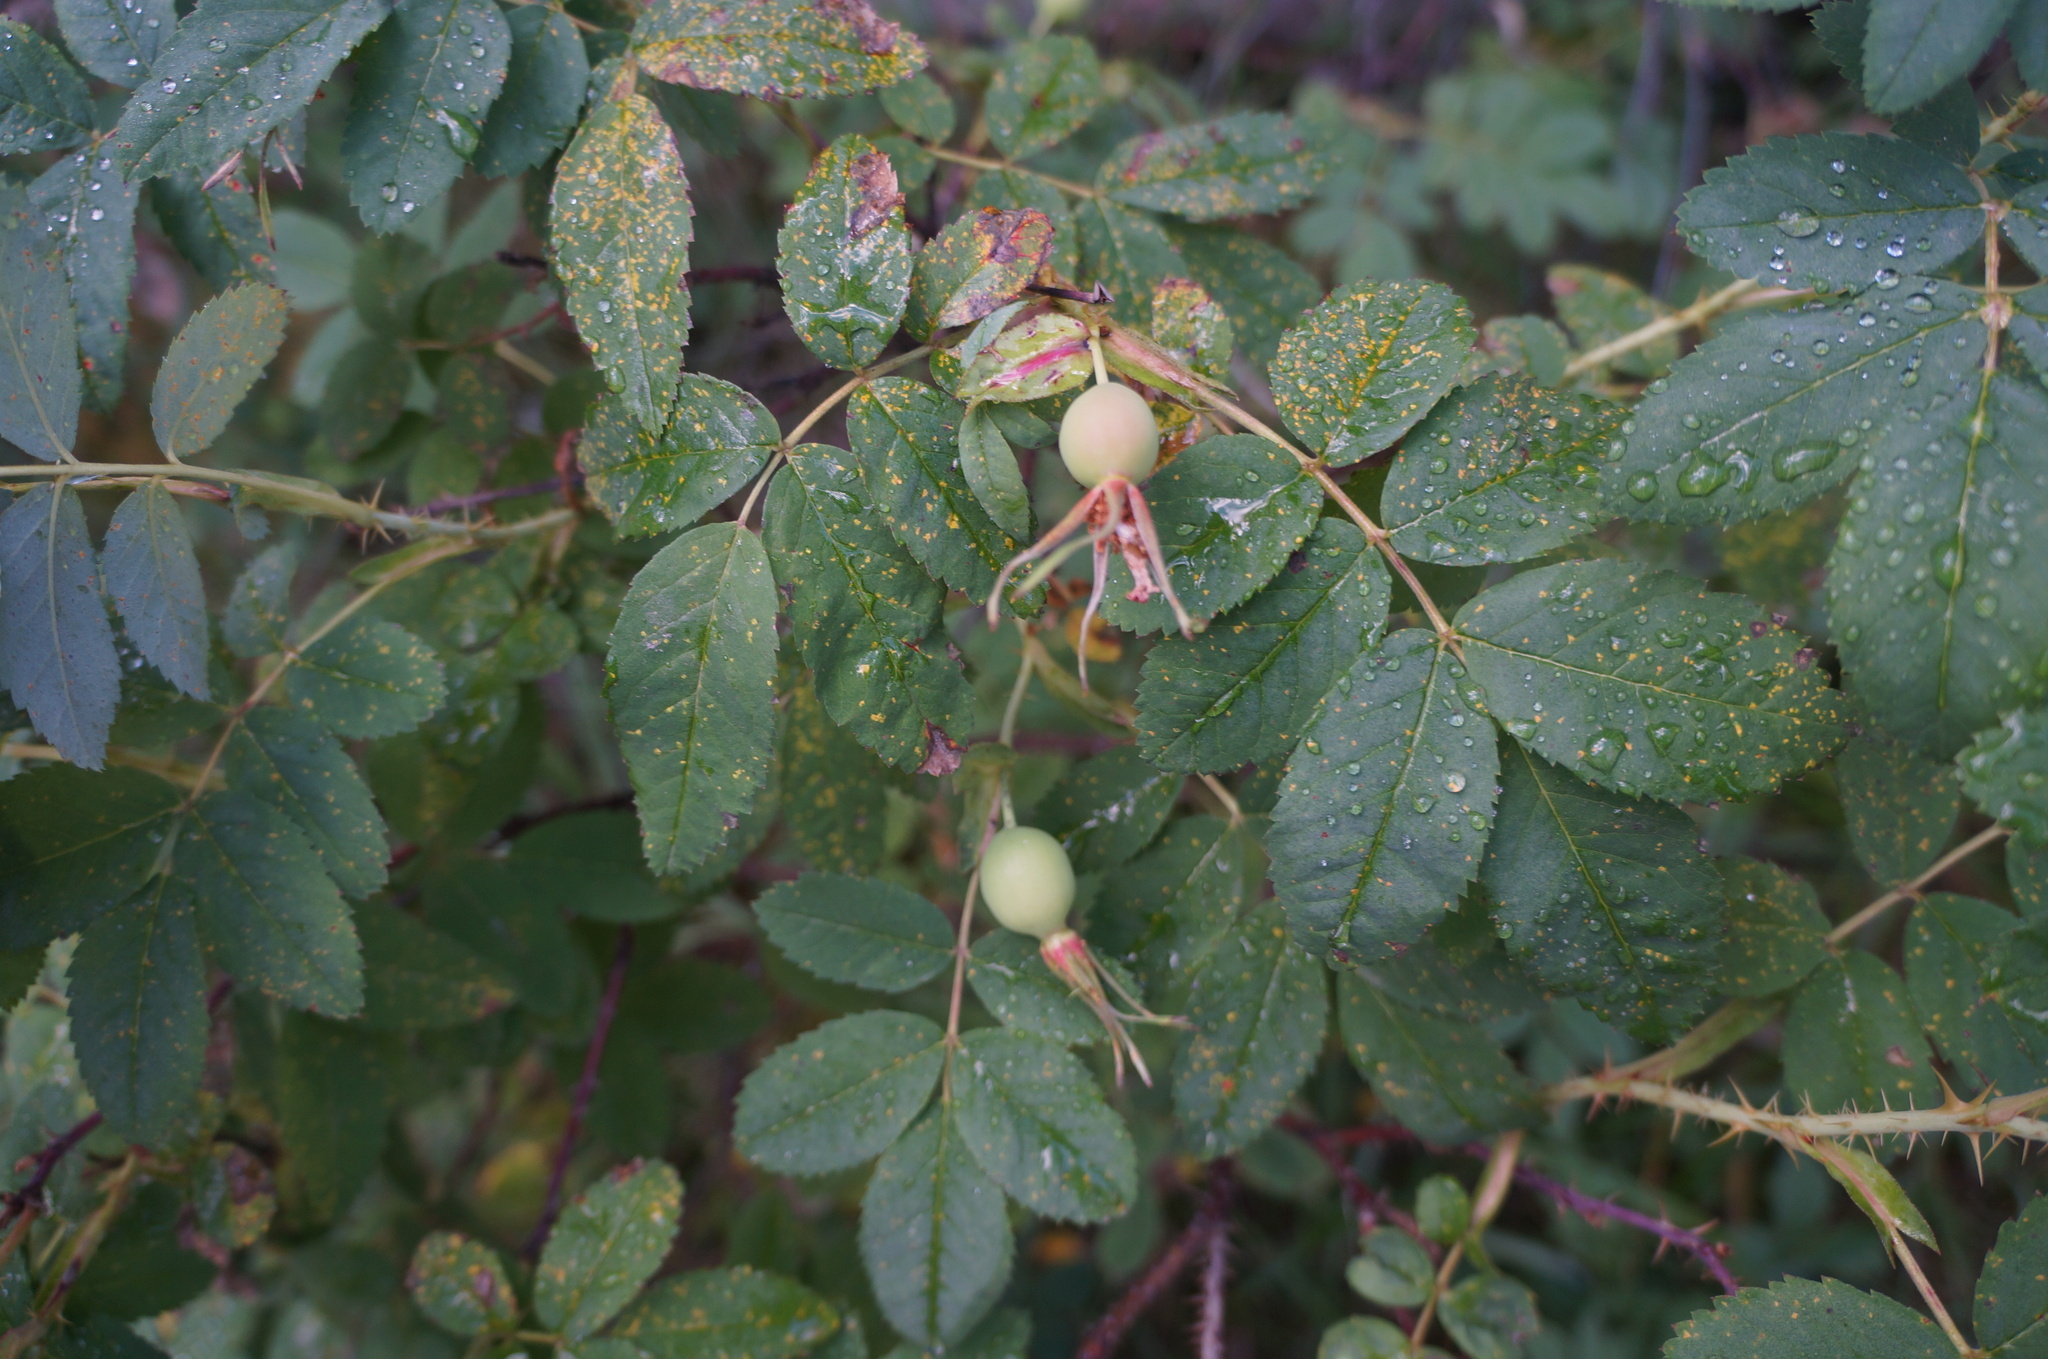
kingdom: Plantae
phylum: Tracheophyta
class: Magnoliopsida
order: Rosales
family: Rosaceae
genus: Rosa
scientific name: Rosa acicularis
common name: Prickly rose
